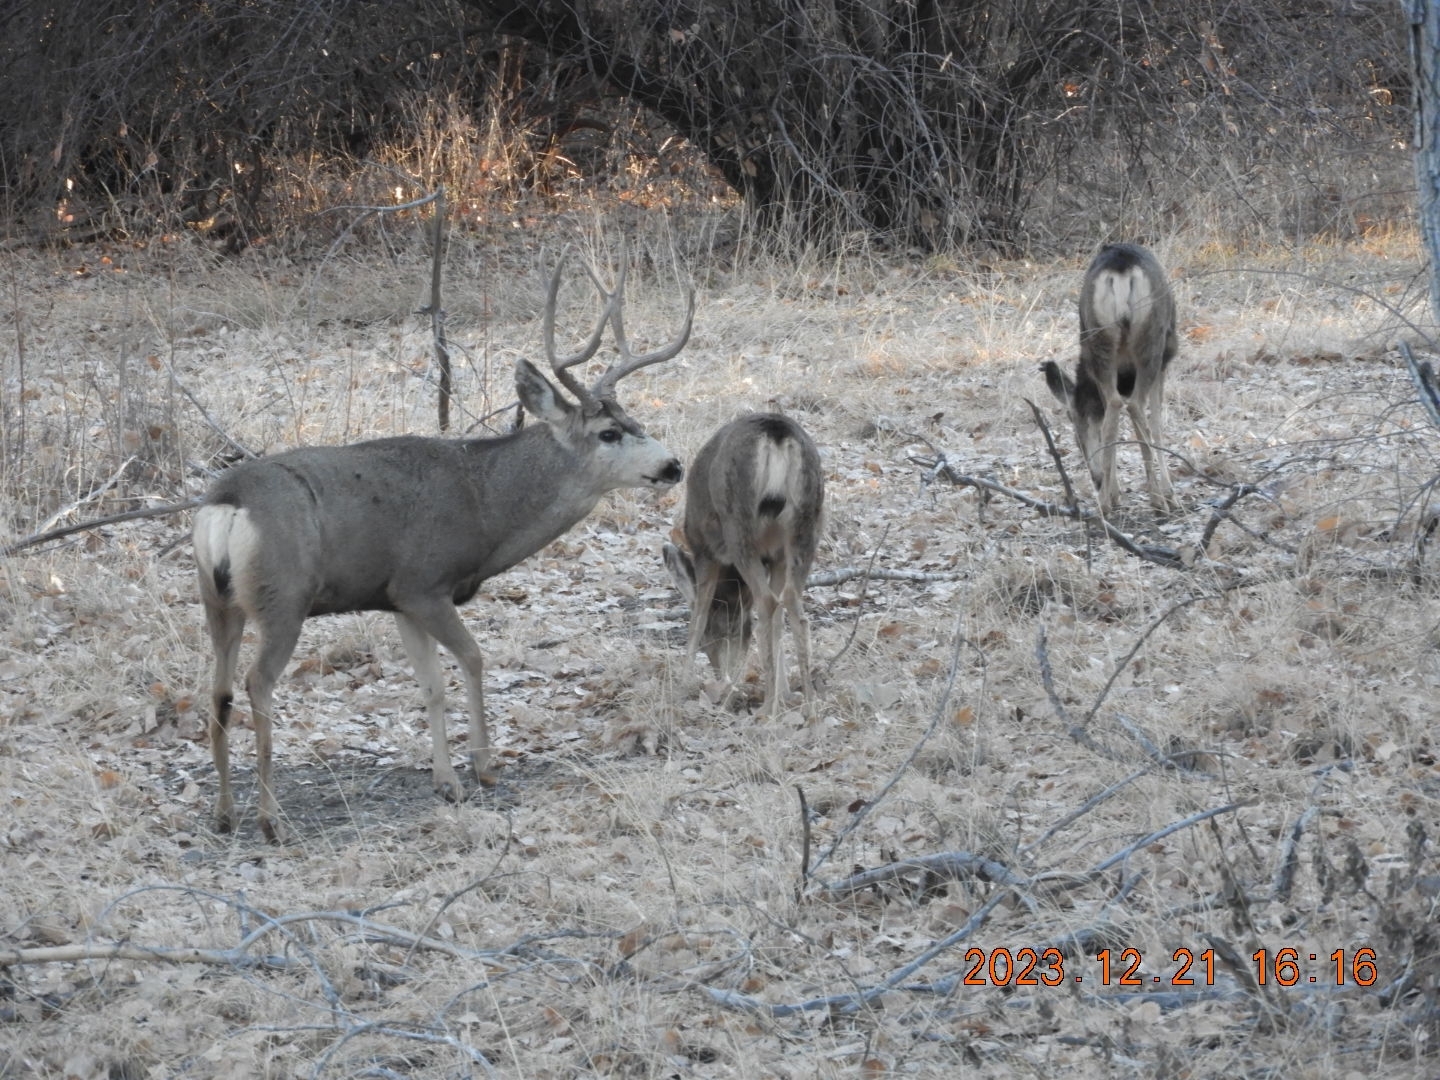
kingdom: Animalia
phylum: Chordata
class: Mammalia
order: Artiodactyla
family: Cervidae
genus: Odocoileus
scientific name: Odocoileus hemionus
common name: Mule deer
